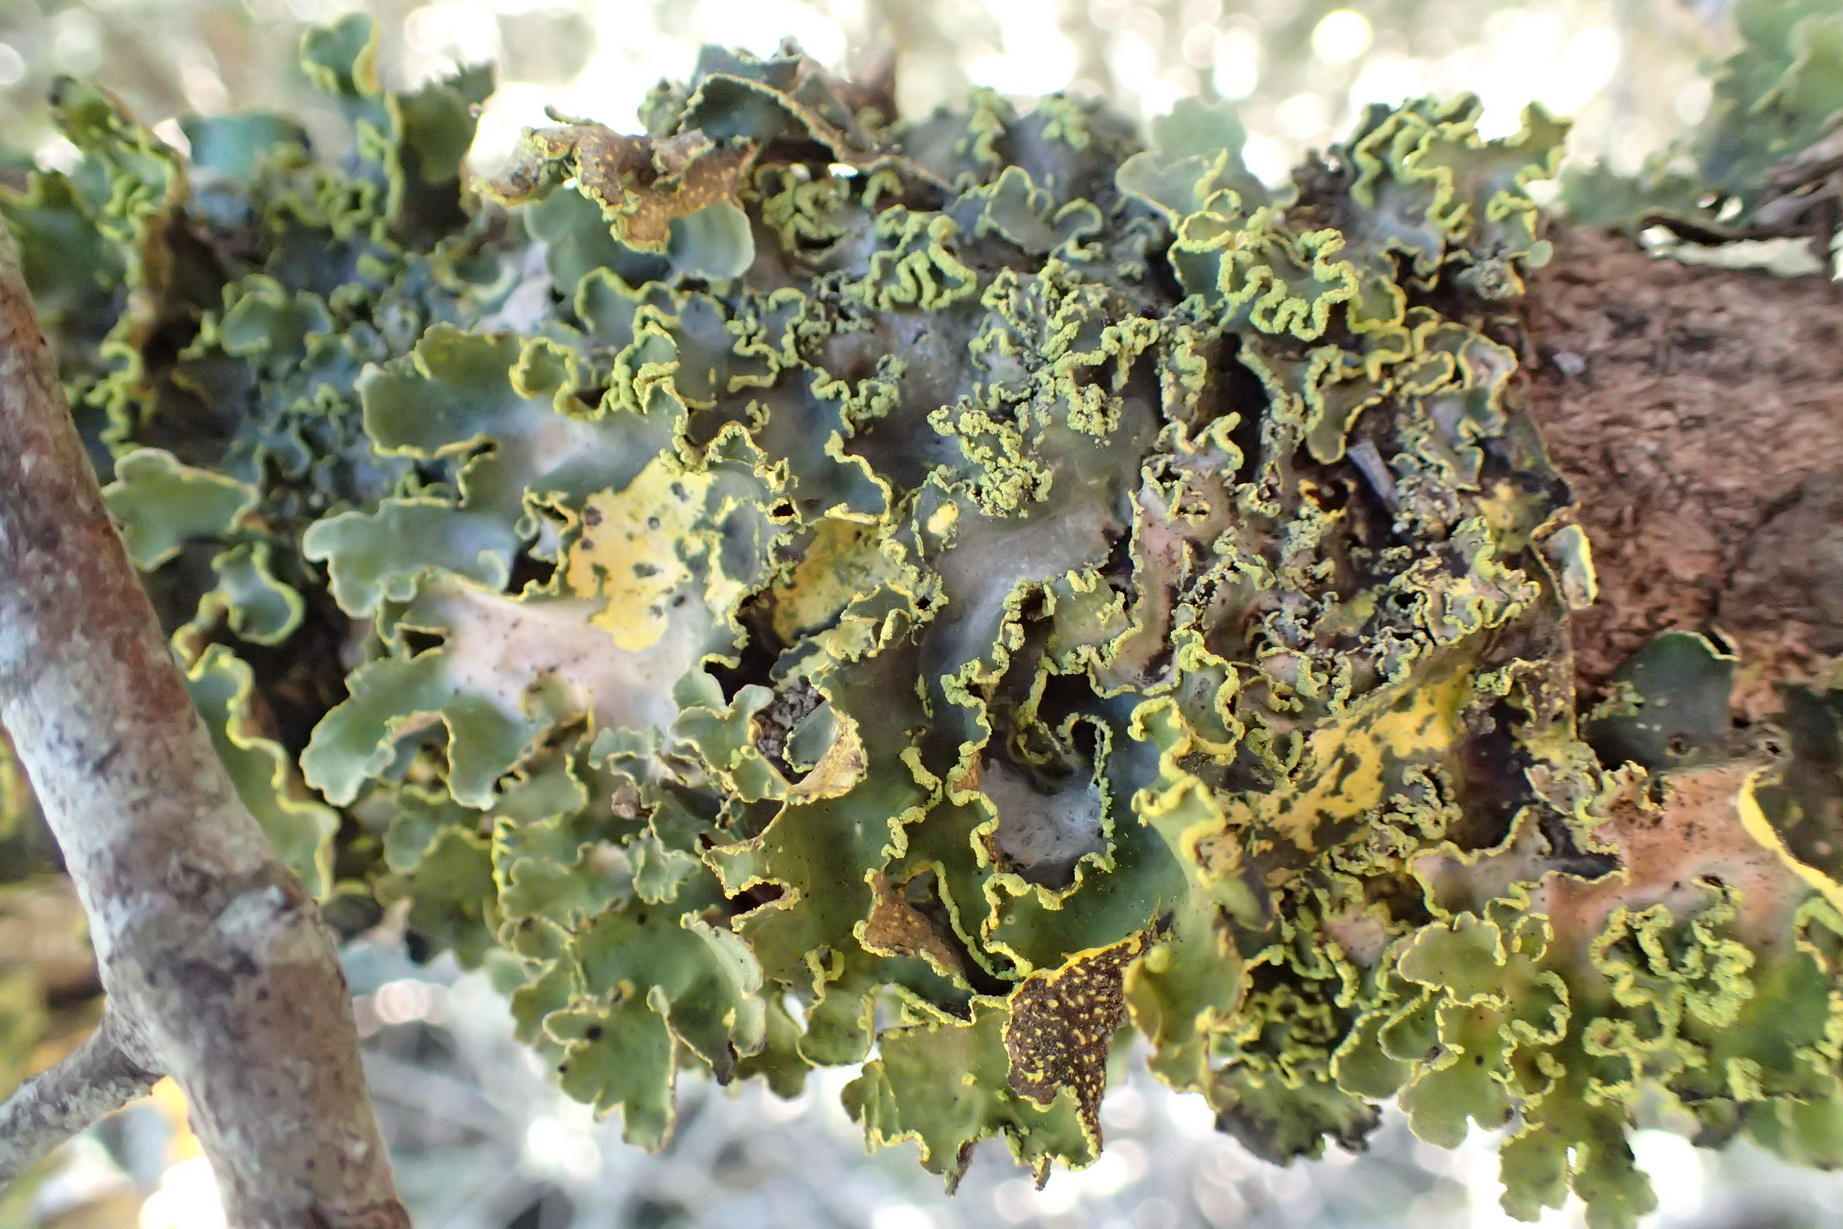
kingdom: Fungi
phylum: Ascomycota
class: Lecanoromycetes
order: Peltigerales
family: Lobariaceae
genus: Pseudocyphellaria
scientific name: Pseudocyphellaria aurata
